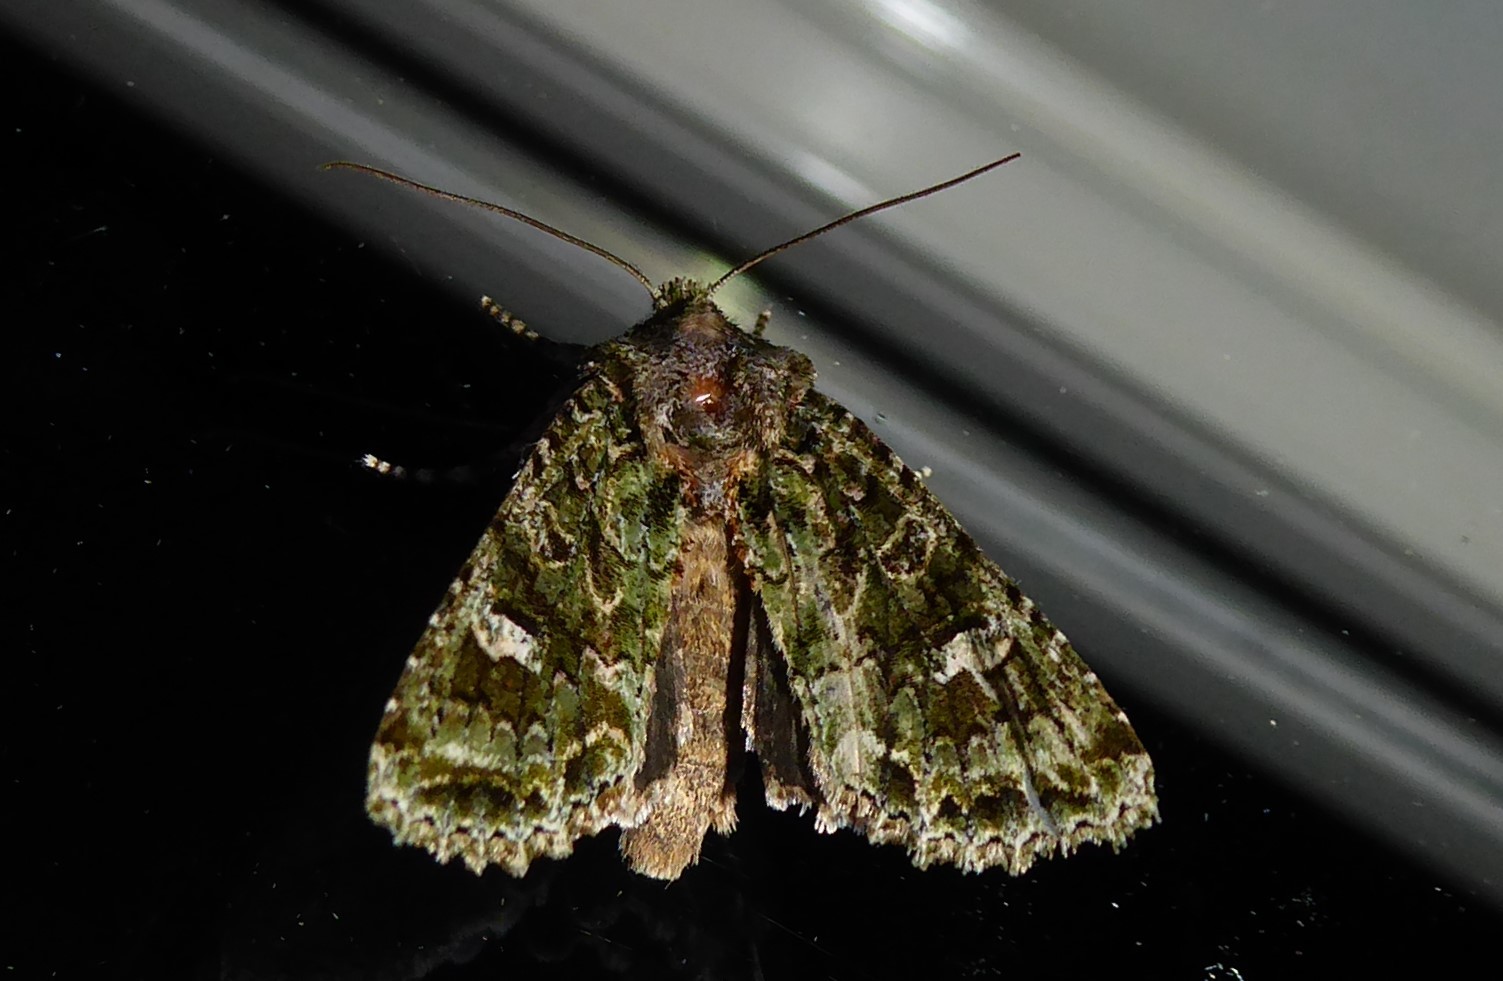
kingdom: Animalia
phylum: Arthropoda
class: Insecta
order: Lepidoptera
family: Noctuidae
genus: Ichneutica
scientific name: Ichneutica
